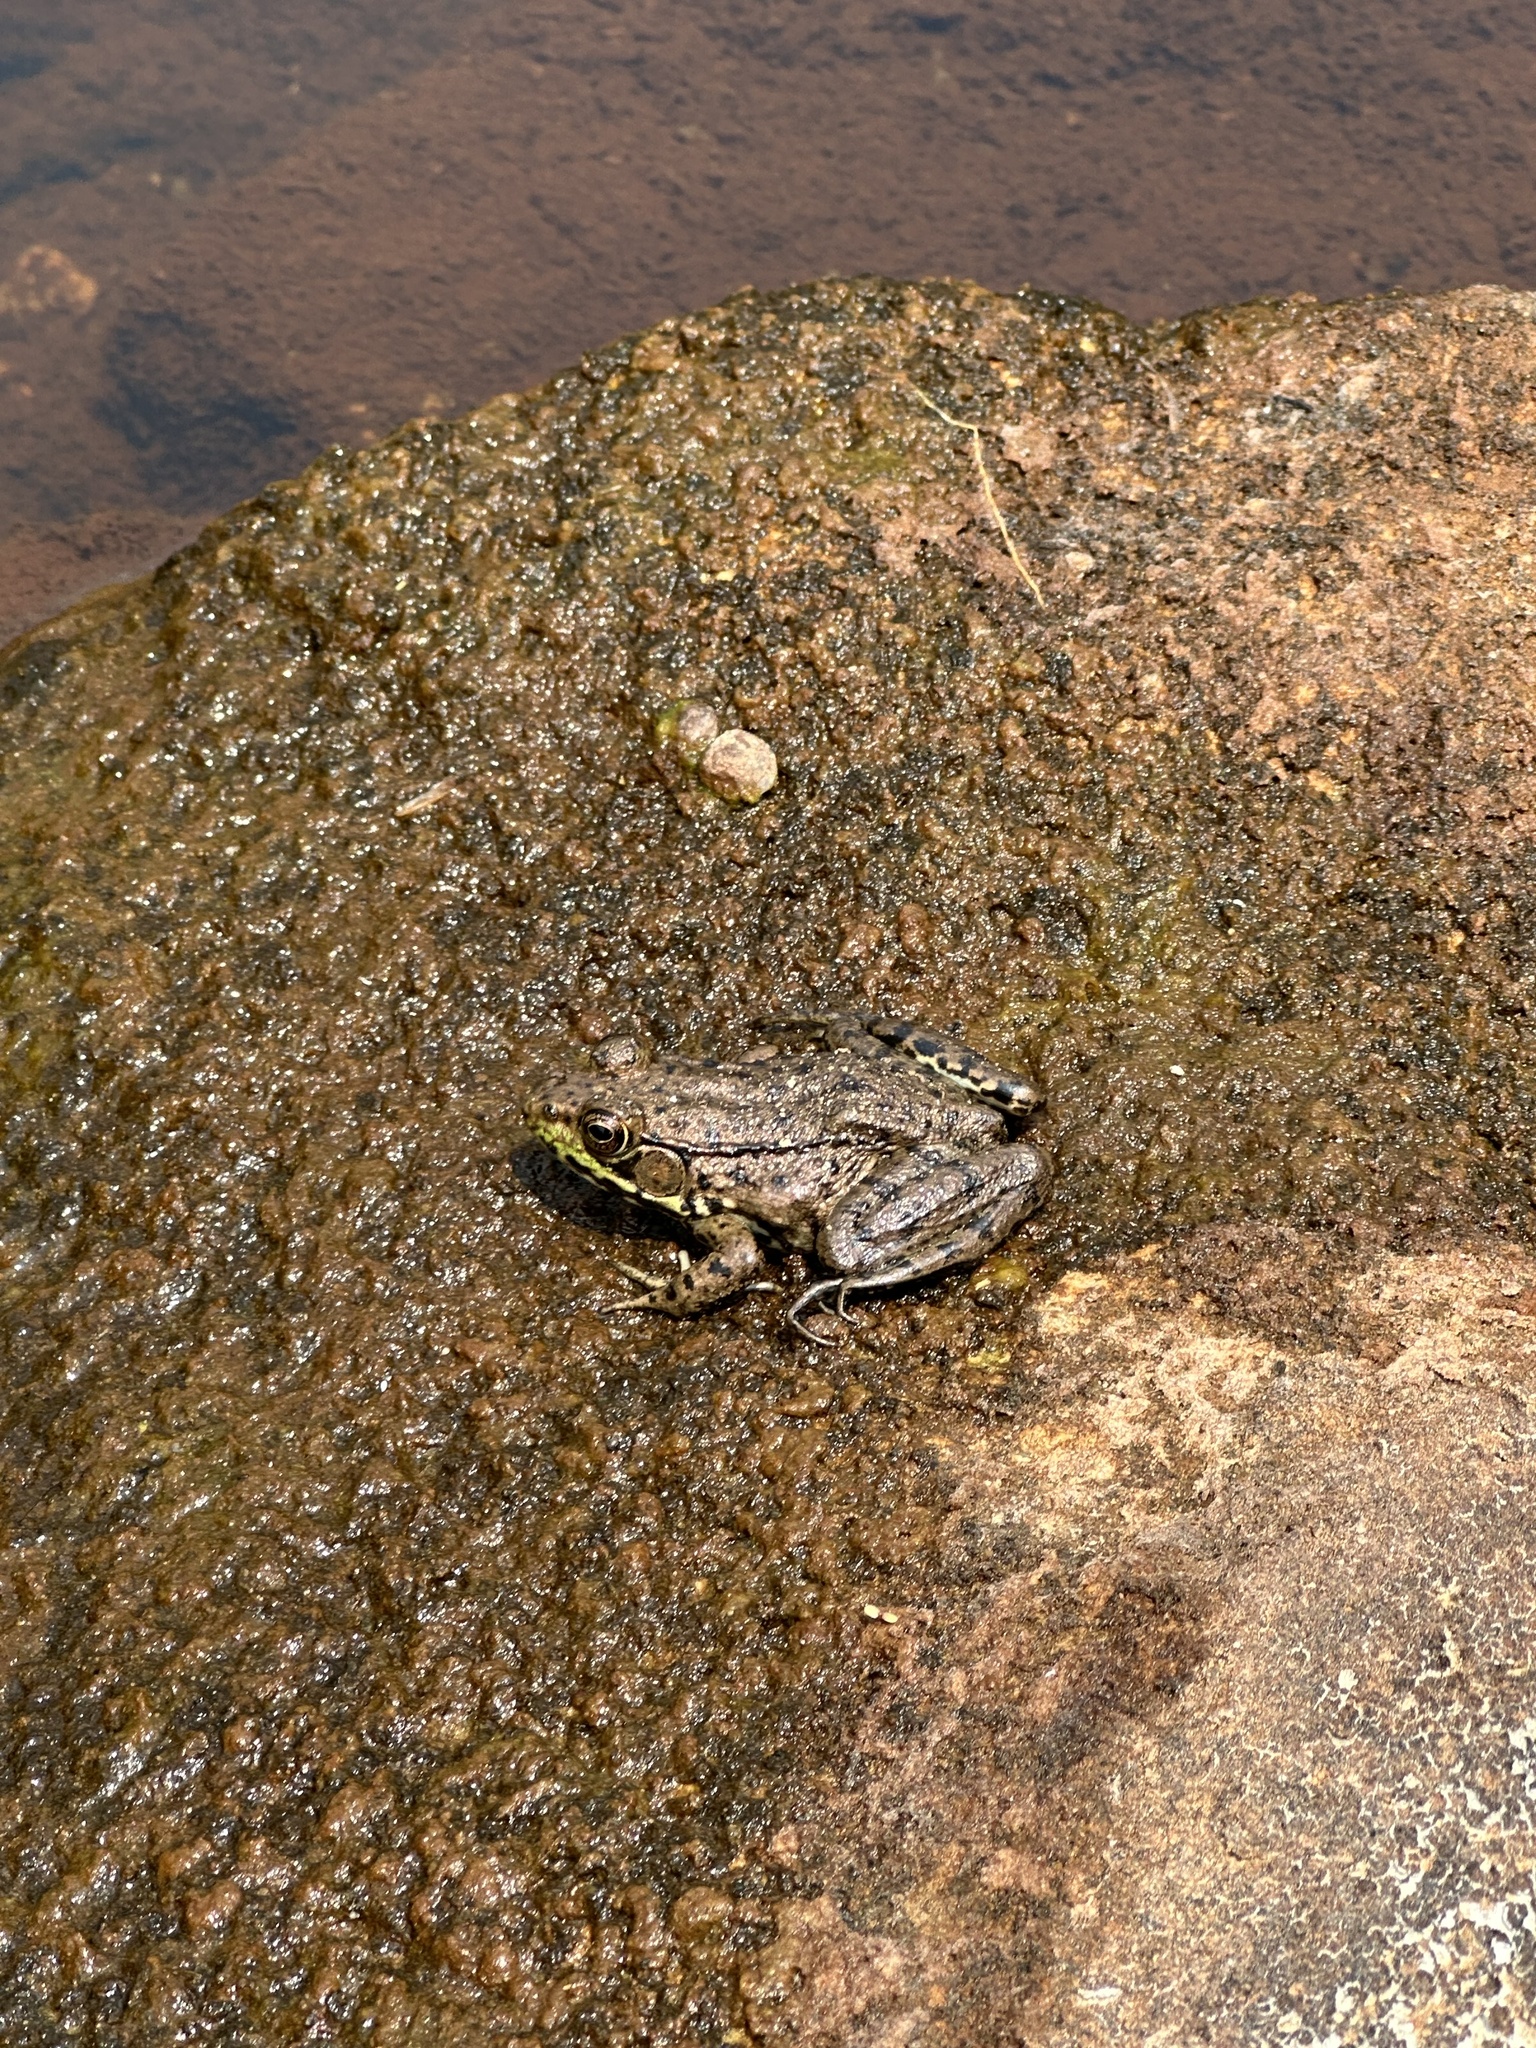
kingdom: Animalia
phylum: Chordata
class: Amphibia
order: Anura
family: Ranidae
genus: Lithobates
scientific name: Lithobates clamitans
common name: Green frog
